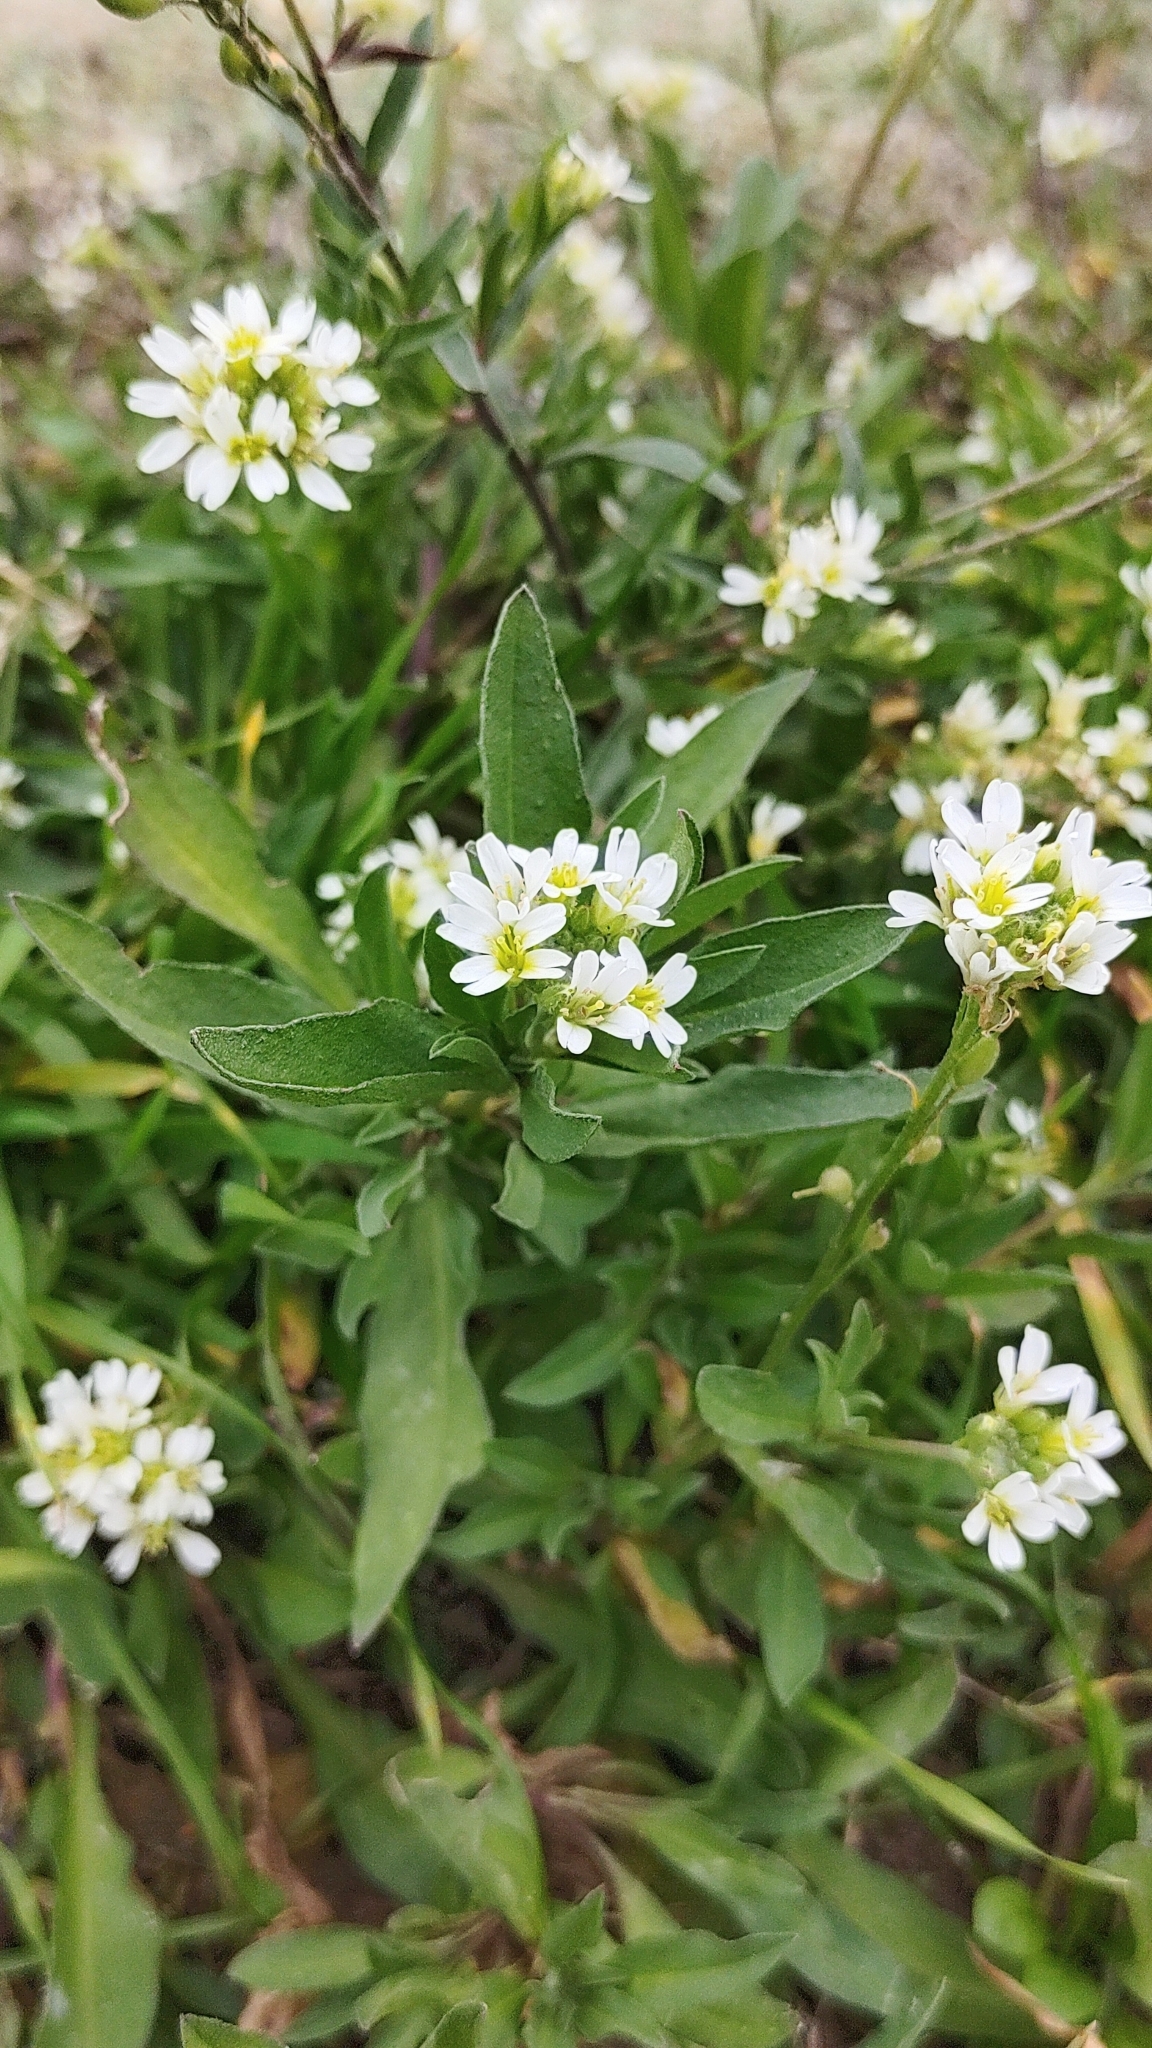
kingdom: Plantae
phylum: Tracheophyta
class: Magnoliopsida
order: Brassicales
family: Brassicaceae
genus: Berteroa
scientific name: Berteroa incana
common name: Hoary alison
